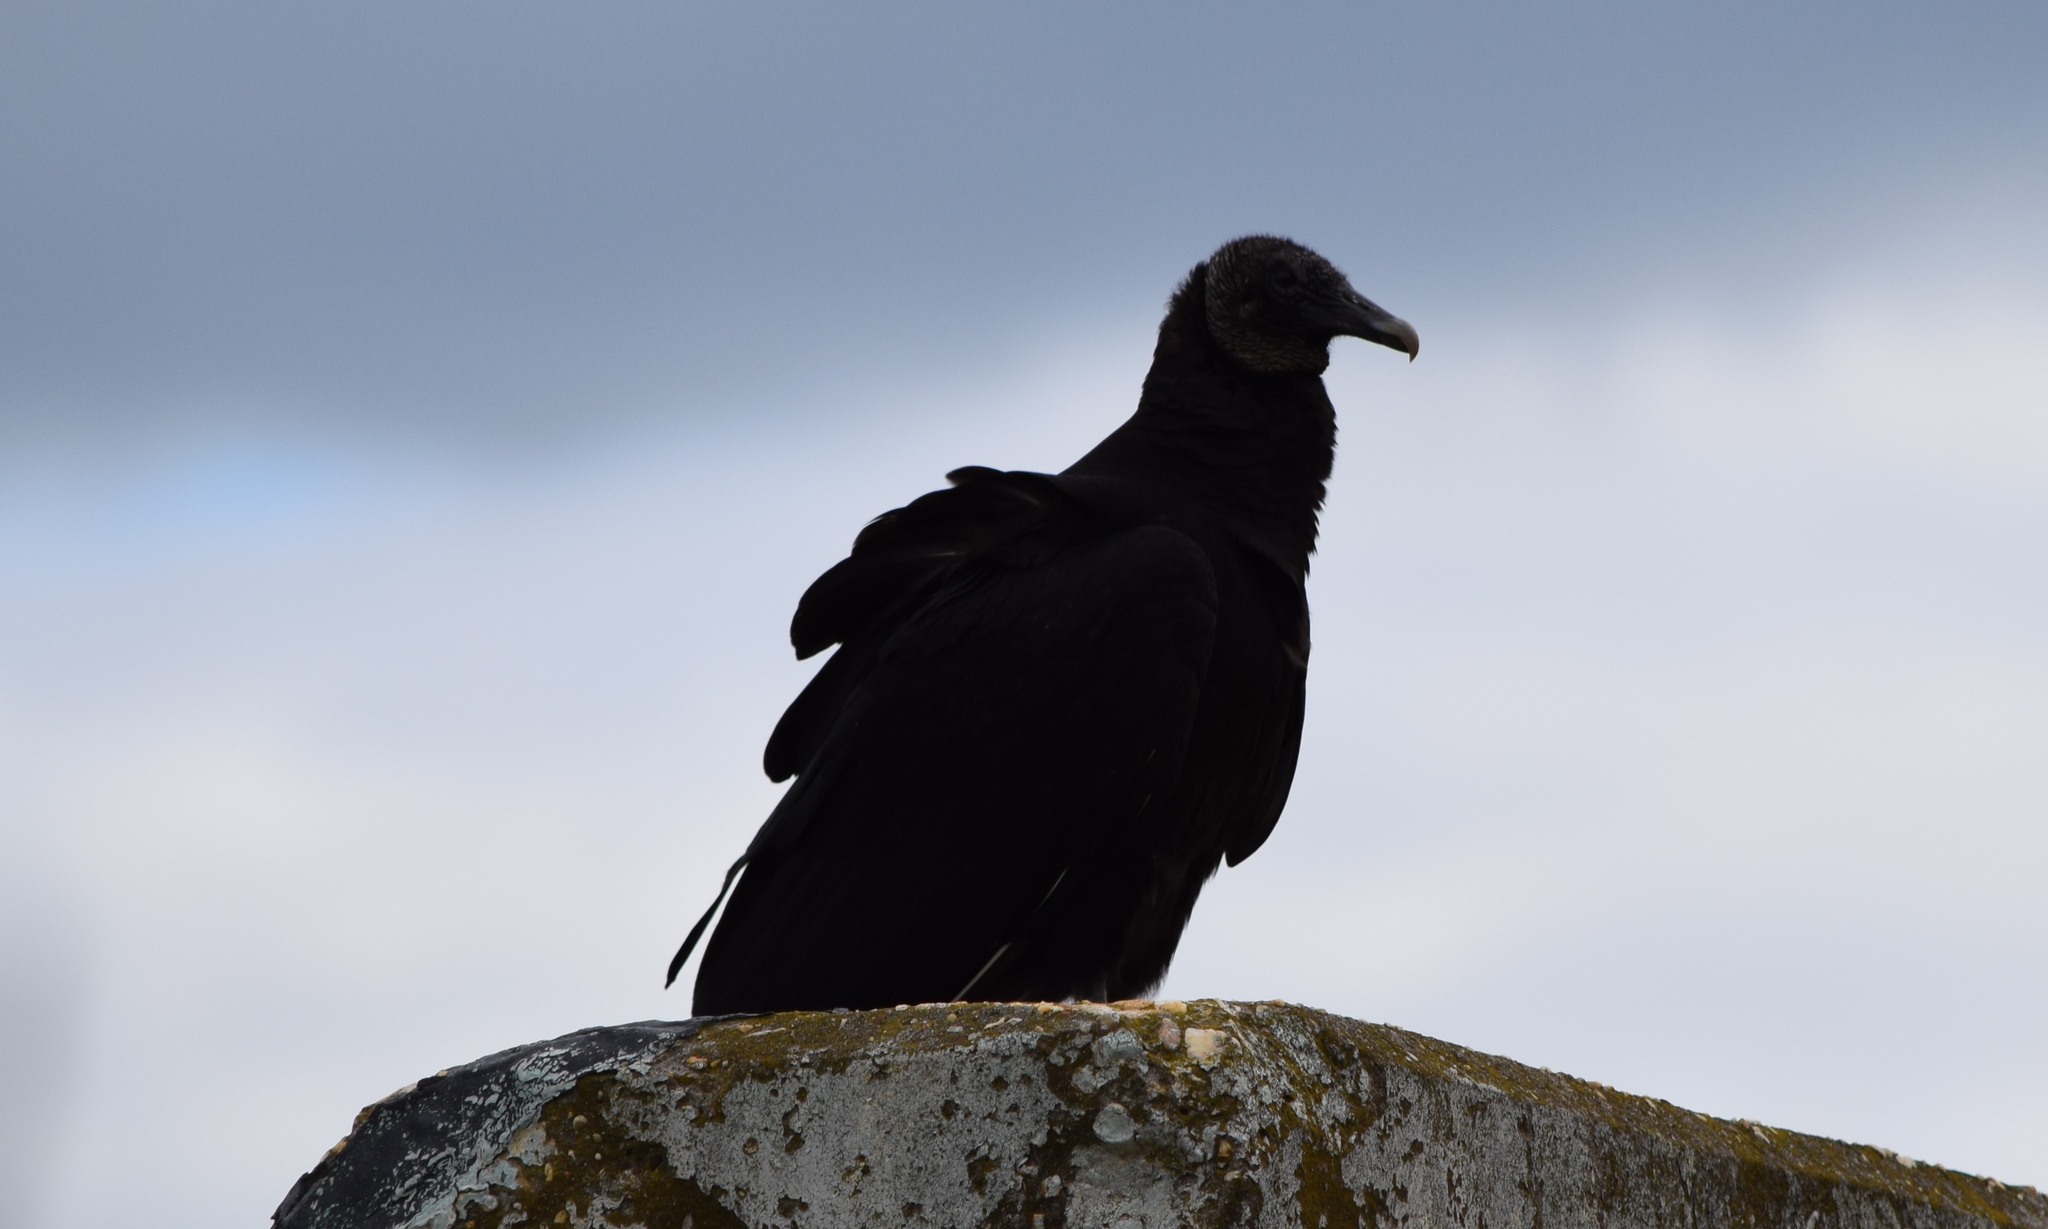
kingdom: Animalia
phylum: Chordata
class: Aves
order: Accipitriformes
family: Cathartidae
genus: Coragyps
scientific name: Coragyps atratus
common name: Black vulture
